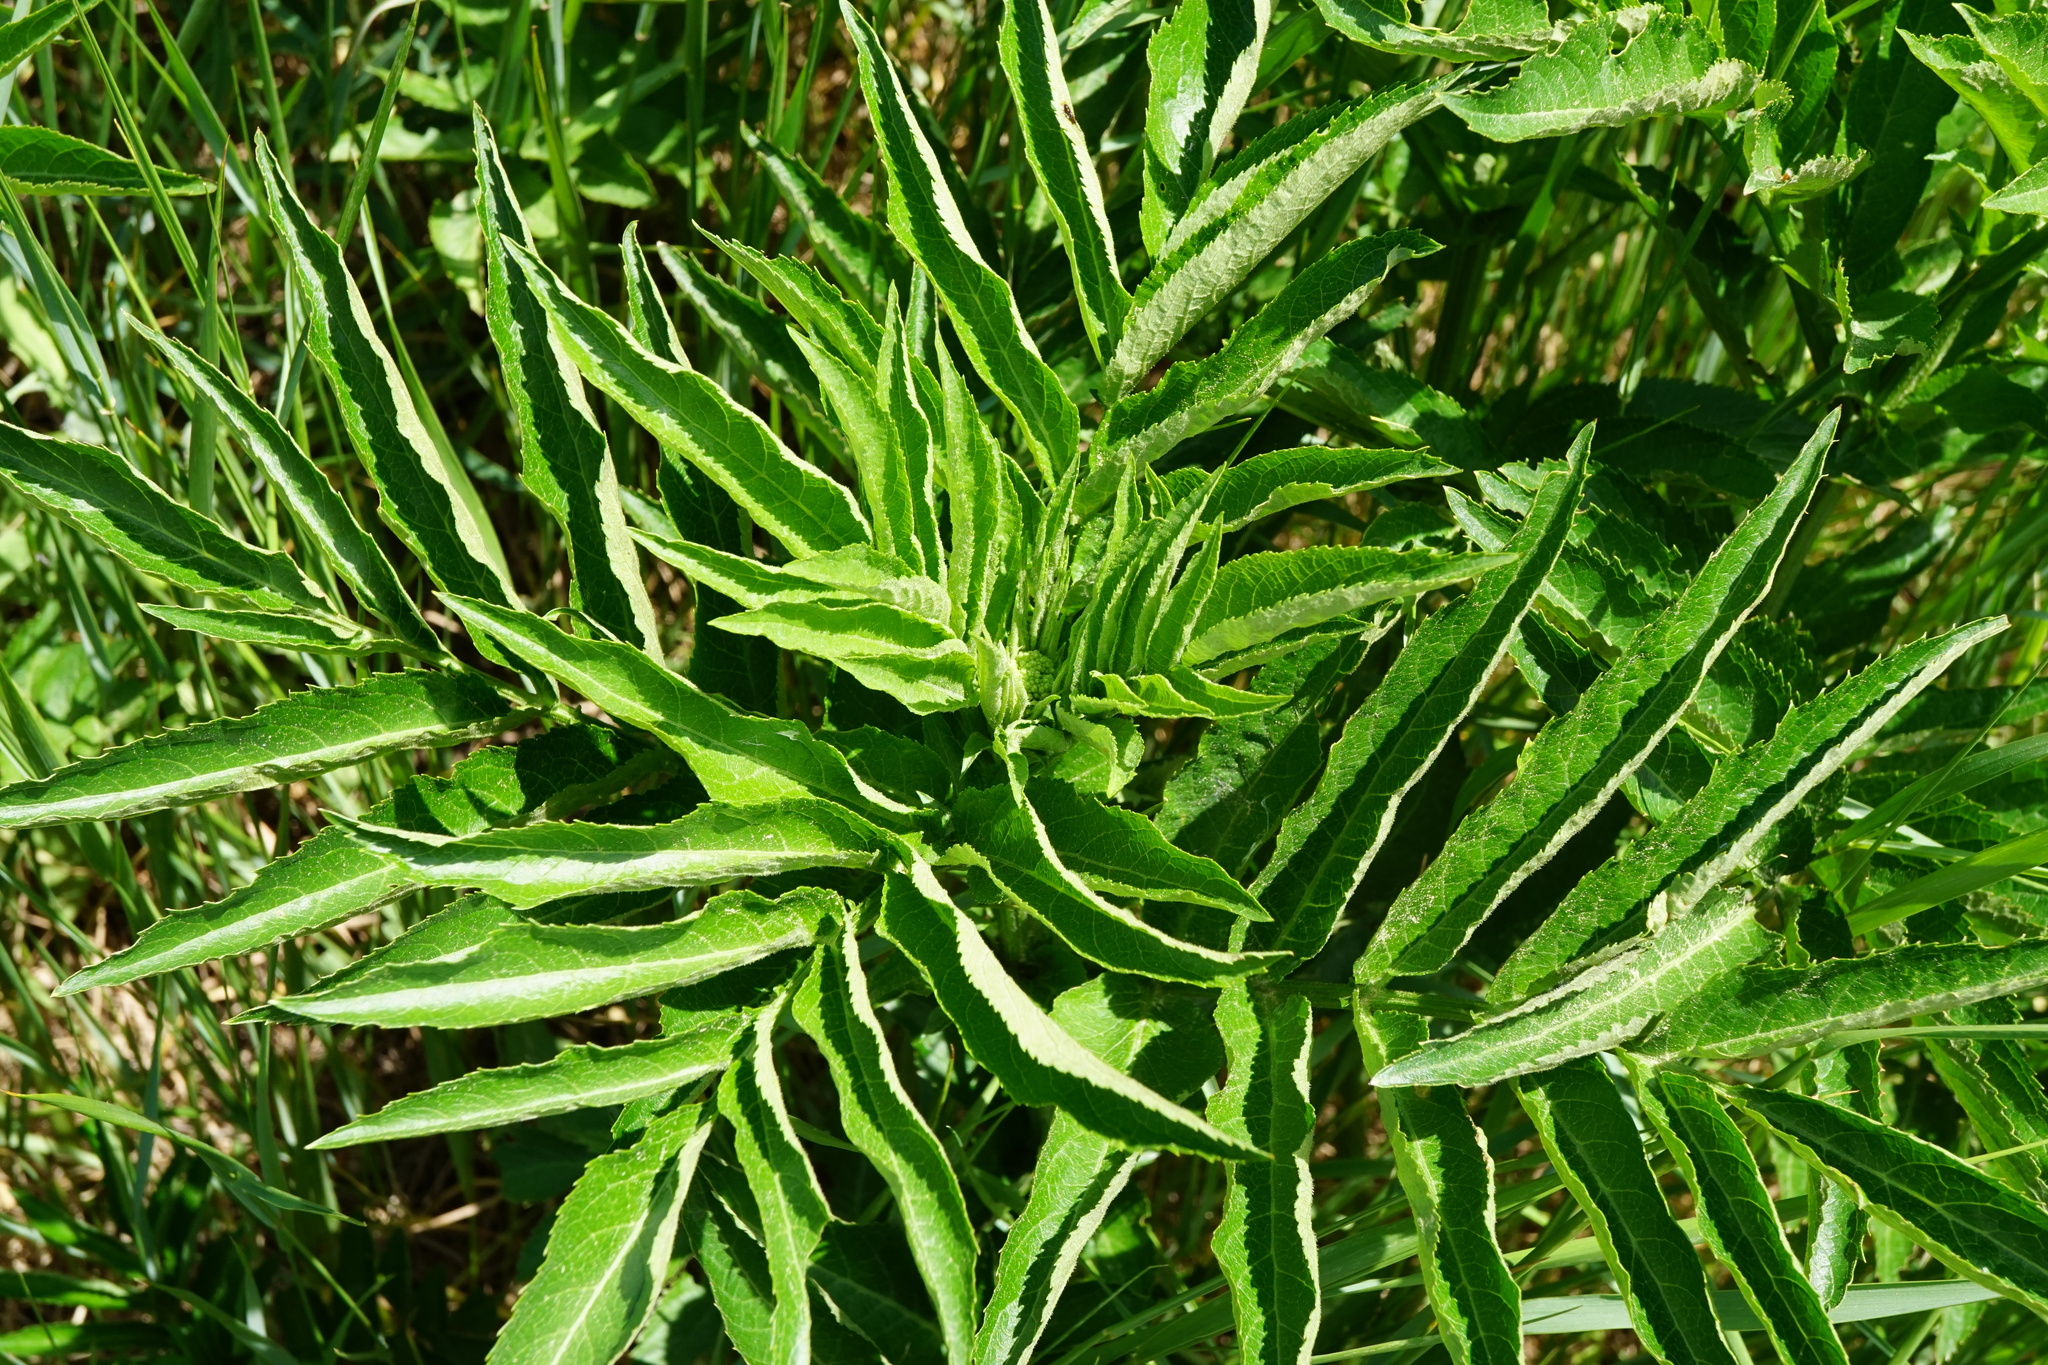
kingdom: Plantae
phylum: Tracheophyta
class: Magnoliopsida
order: Dipsacales
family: Viburnaceae
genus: Sambucus
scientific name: Sambucus ebulus
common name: Dwarf elder
